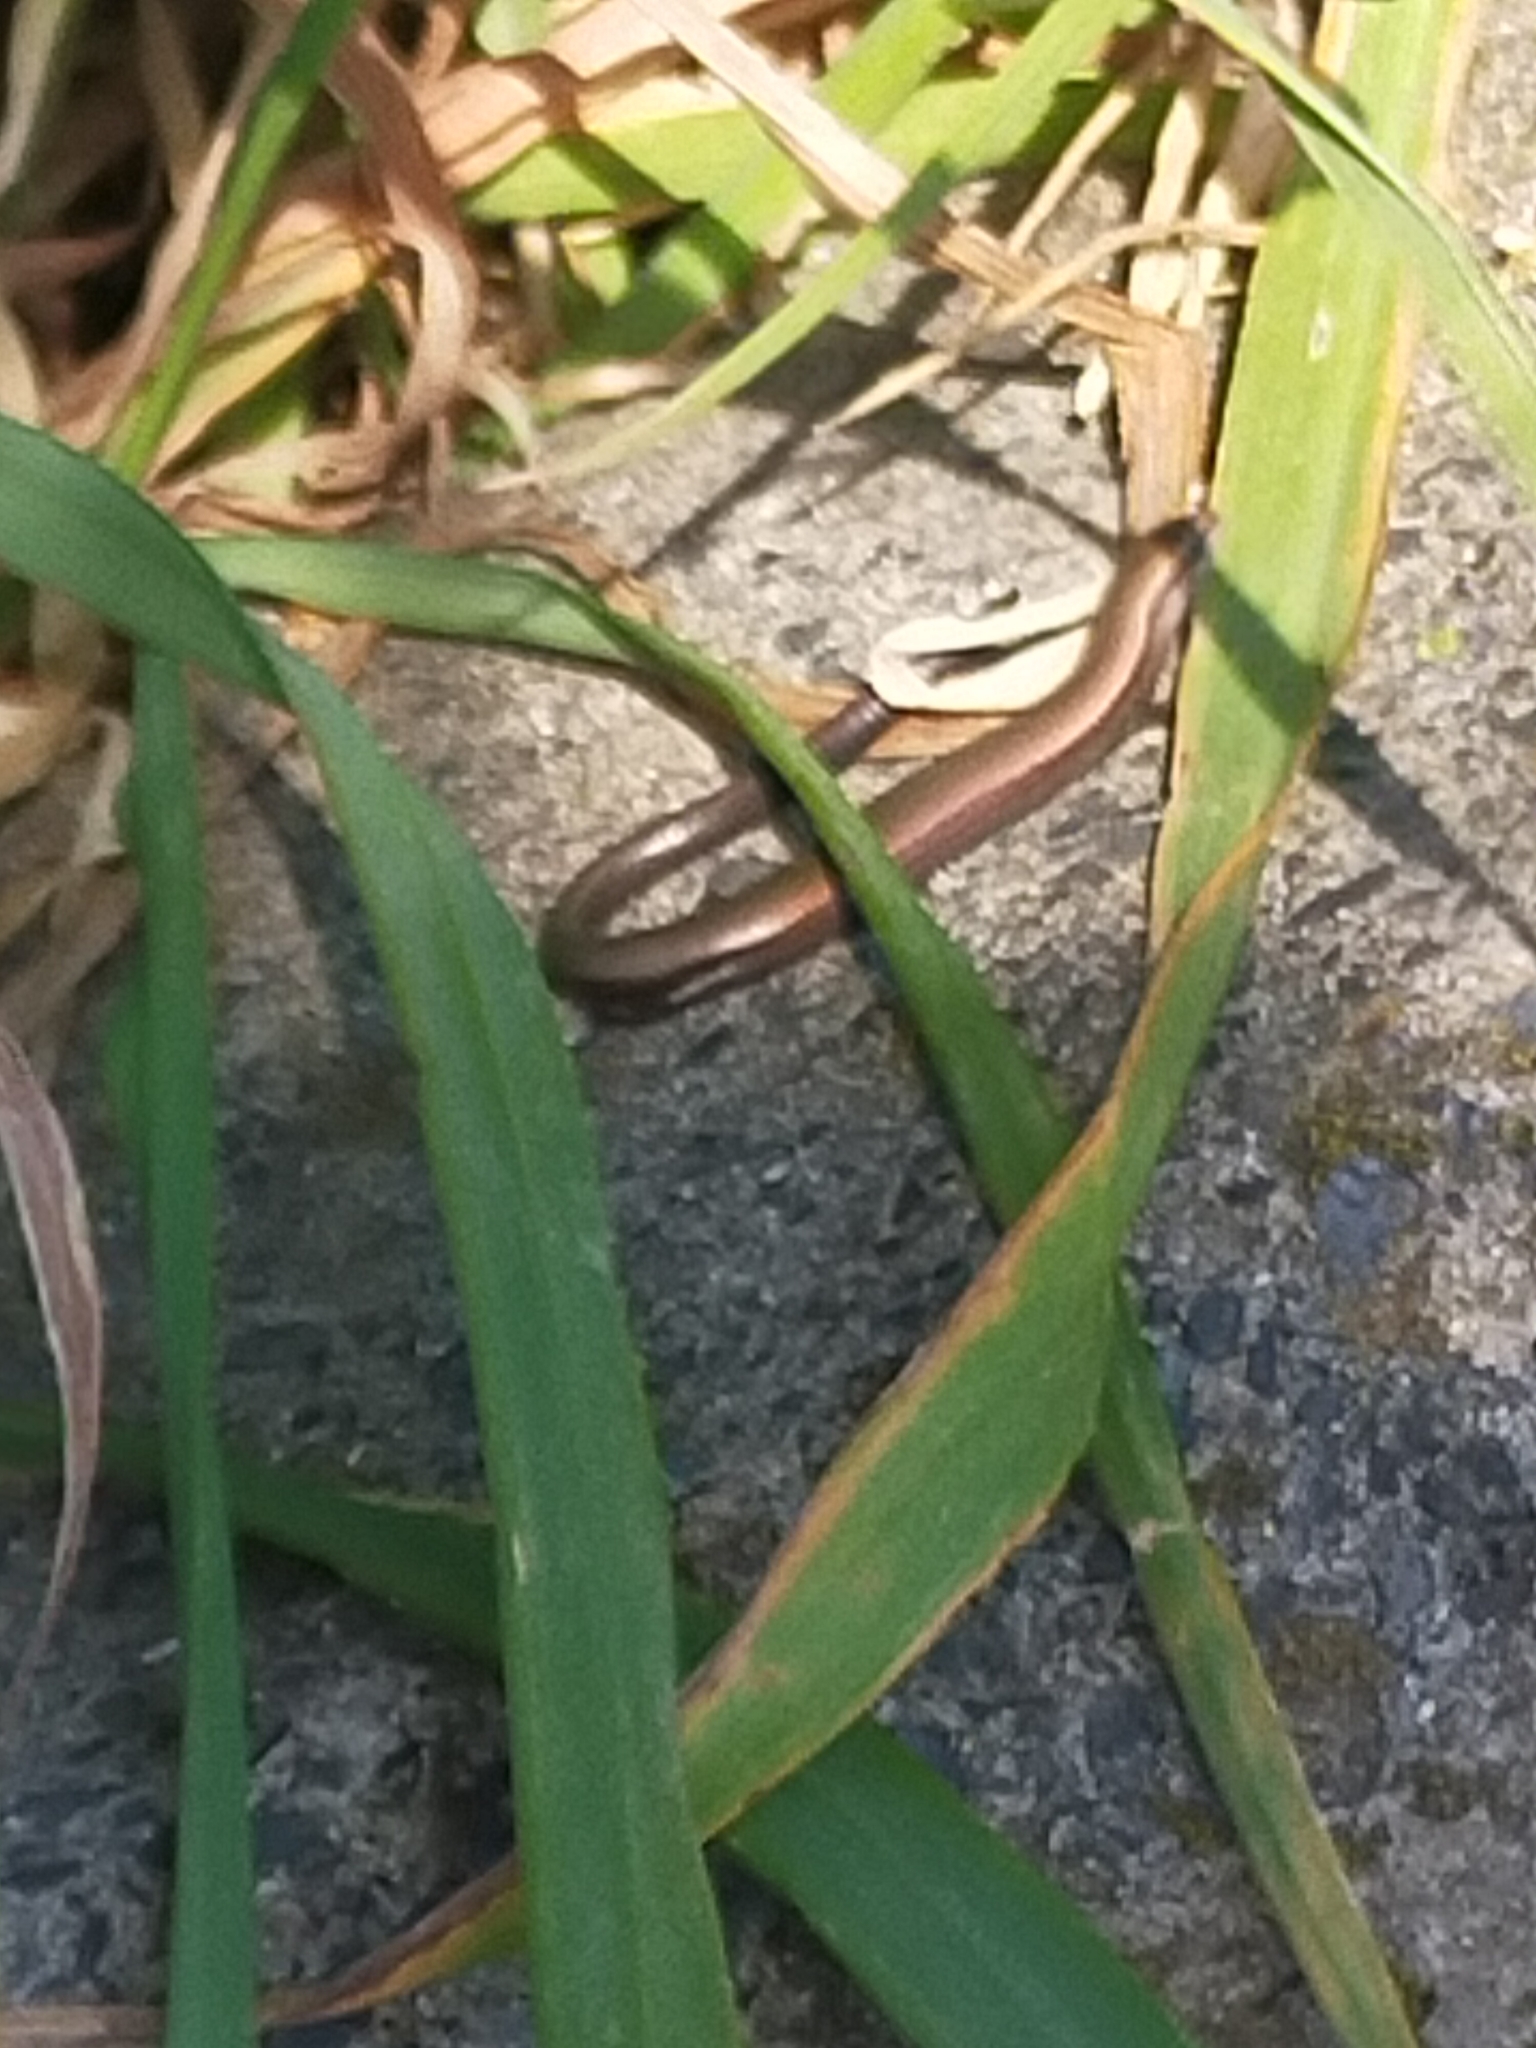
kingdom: Animalia
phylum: Chordata
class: Squamata
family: Scincidae
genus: Ablepharus
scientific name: Ablepharus kitaibelii
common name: Juniper skink
